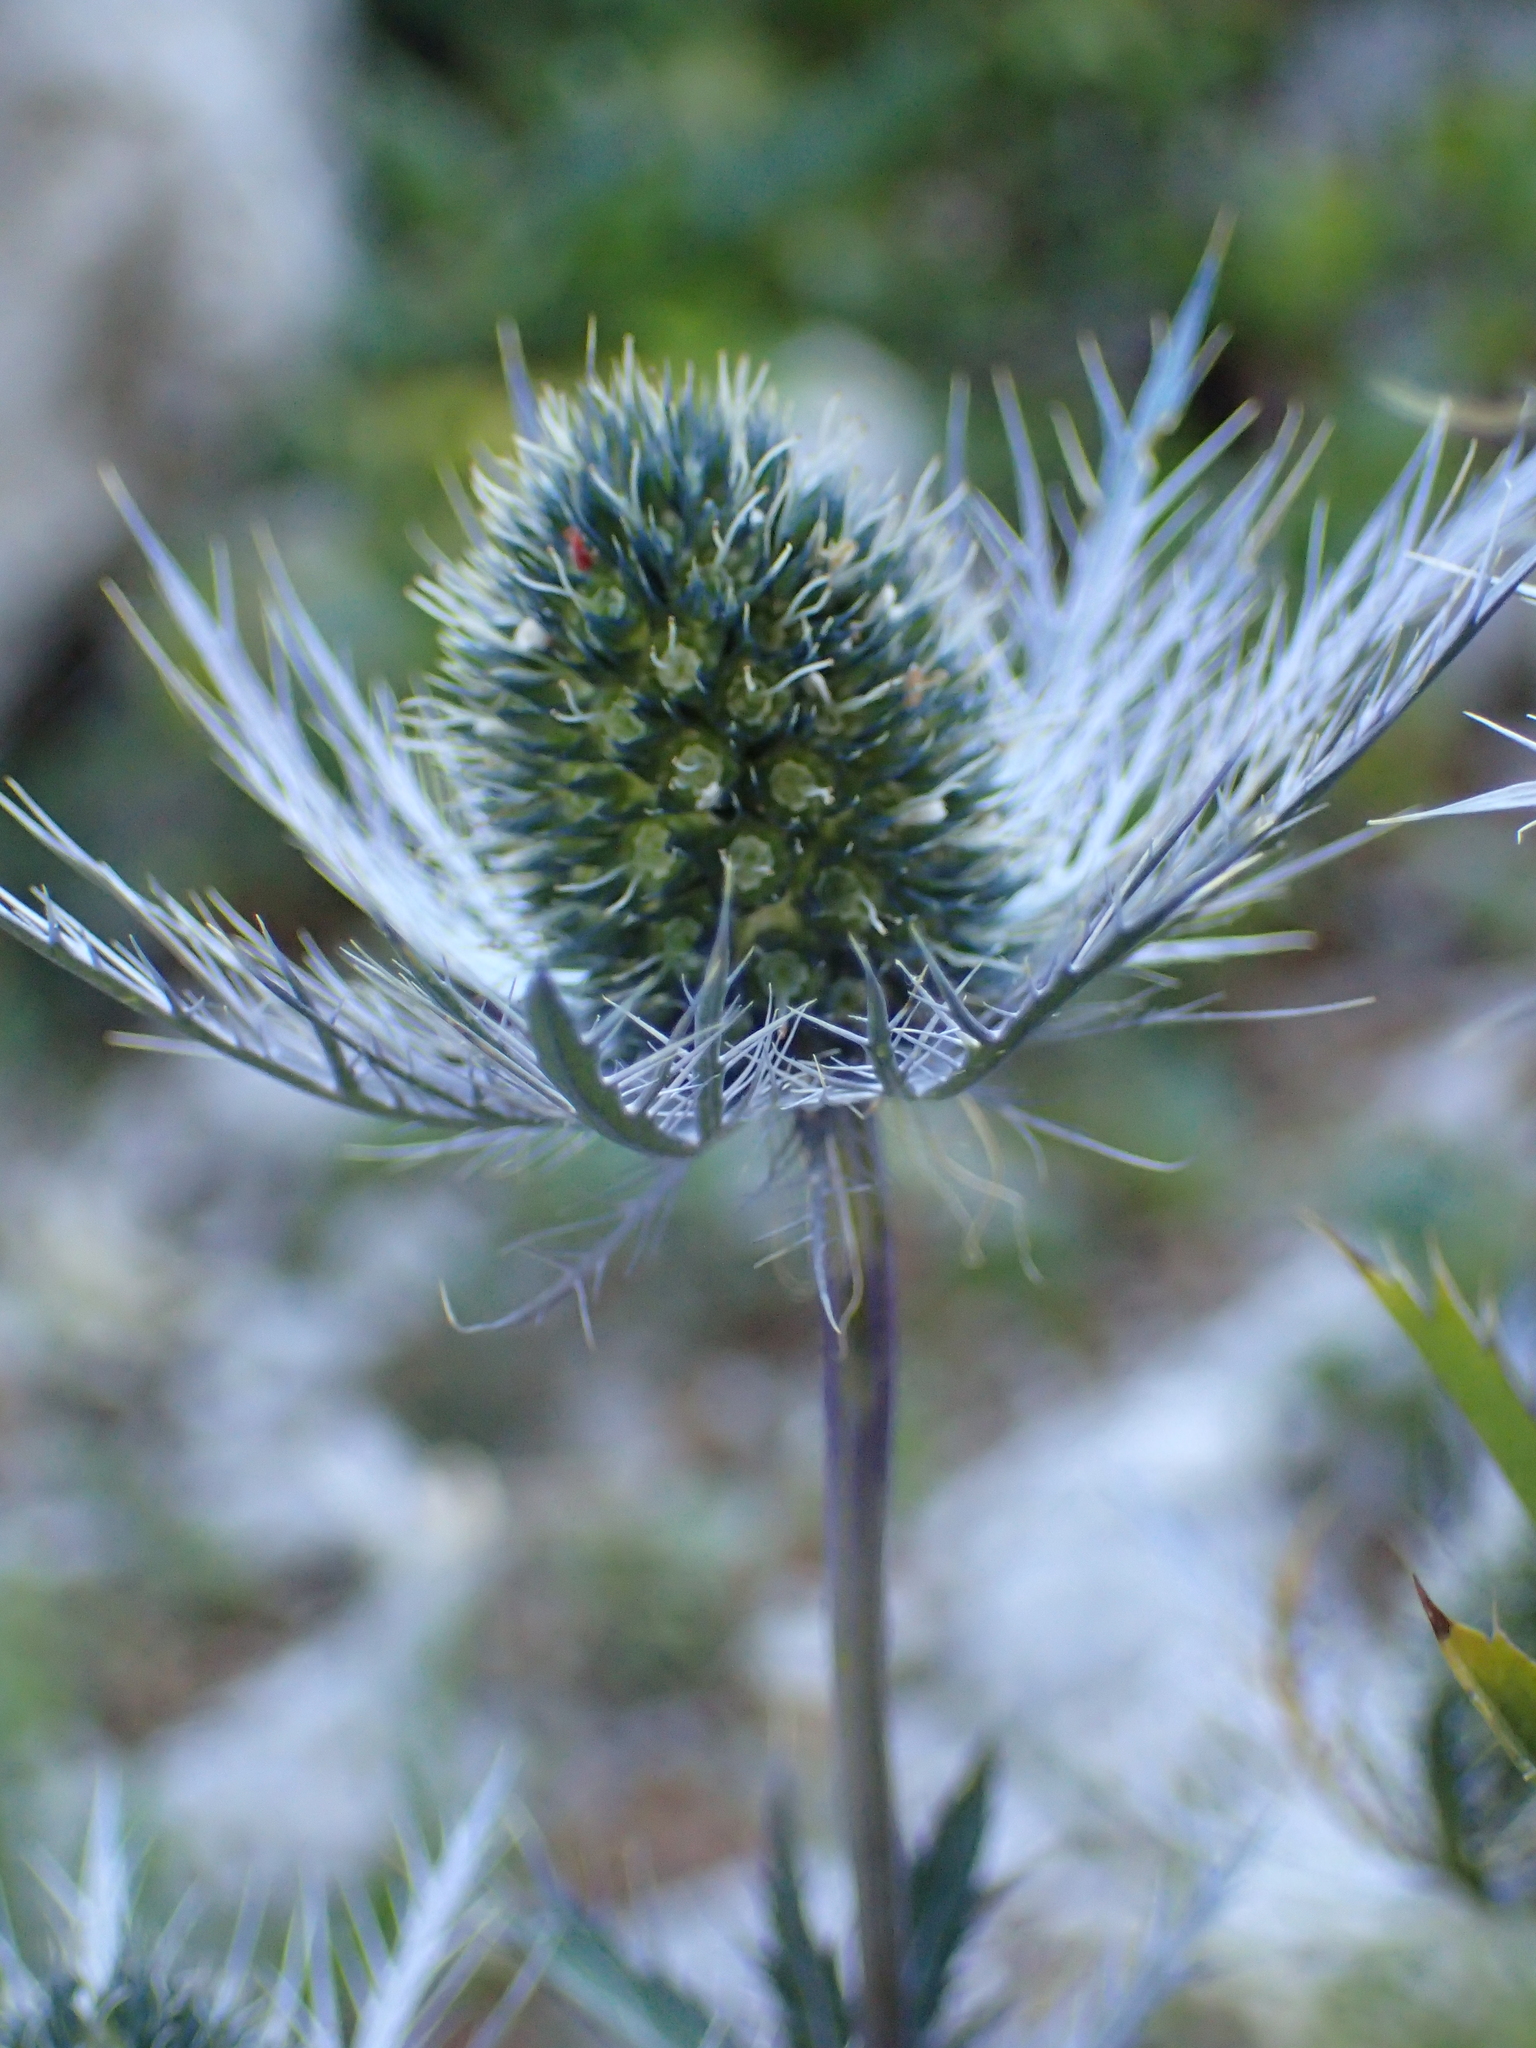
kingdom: Plantae
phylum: Tracheophyta
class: Magnoliopsida
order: Apiales
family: Apiaceae
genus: Eryngium
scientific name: Eryngium alpinum
